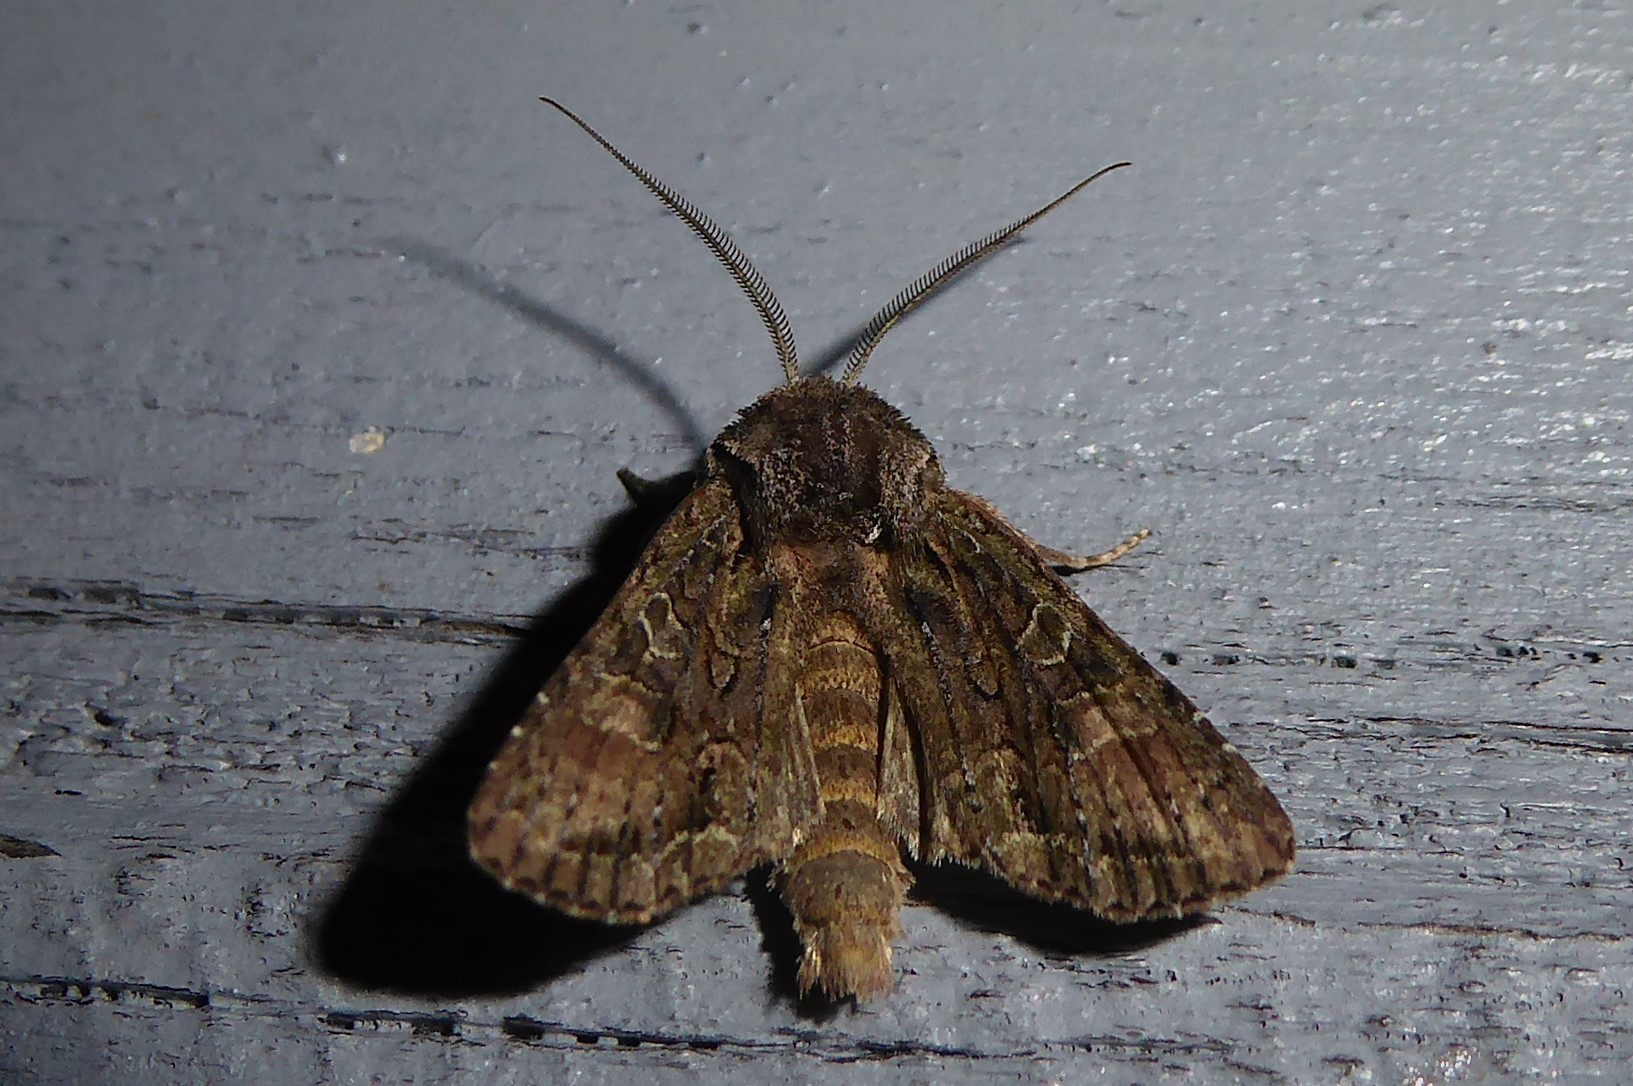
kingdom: Animalia
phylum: Arthropoda
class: Insecta
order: Lepidoptera
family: Noctuidae
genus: Ichneutica
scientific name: Ichneutica mutans
